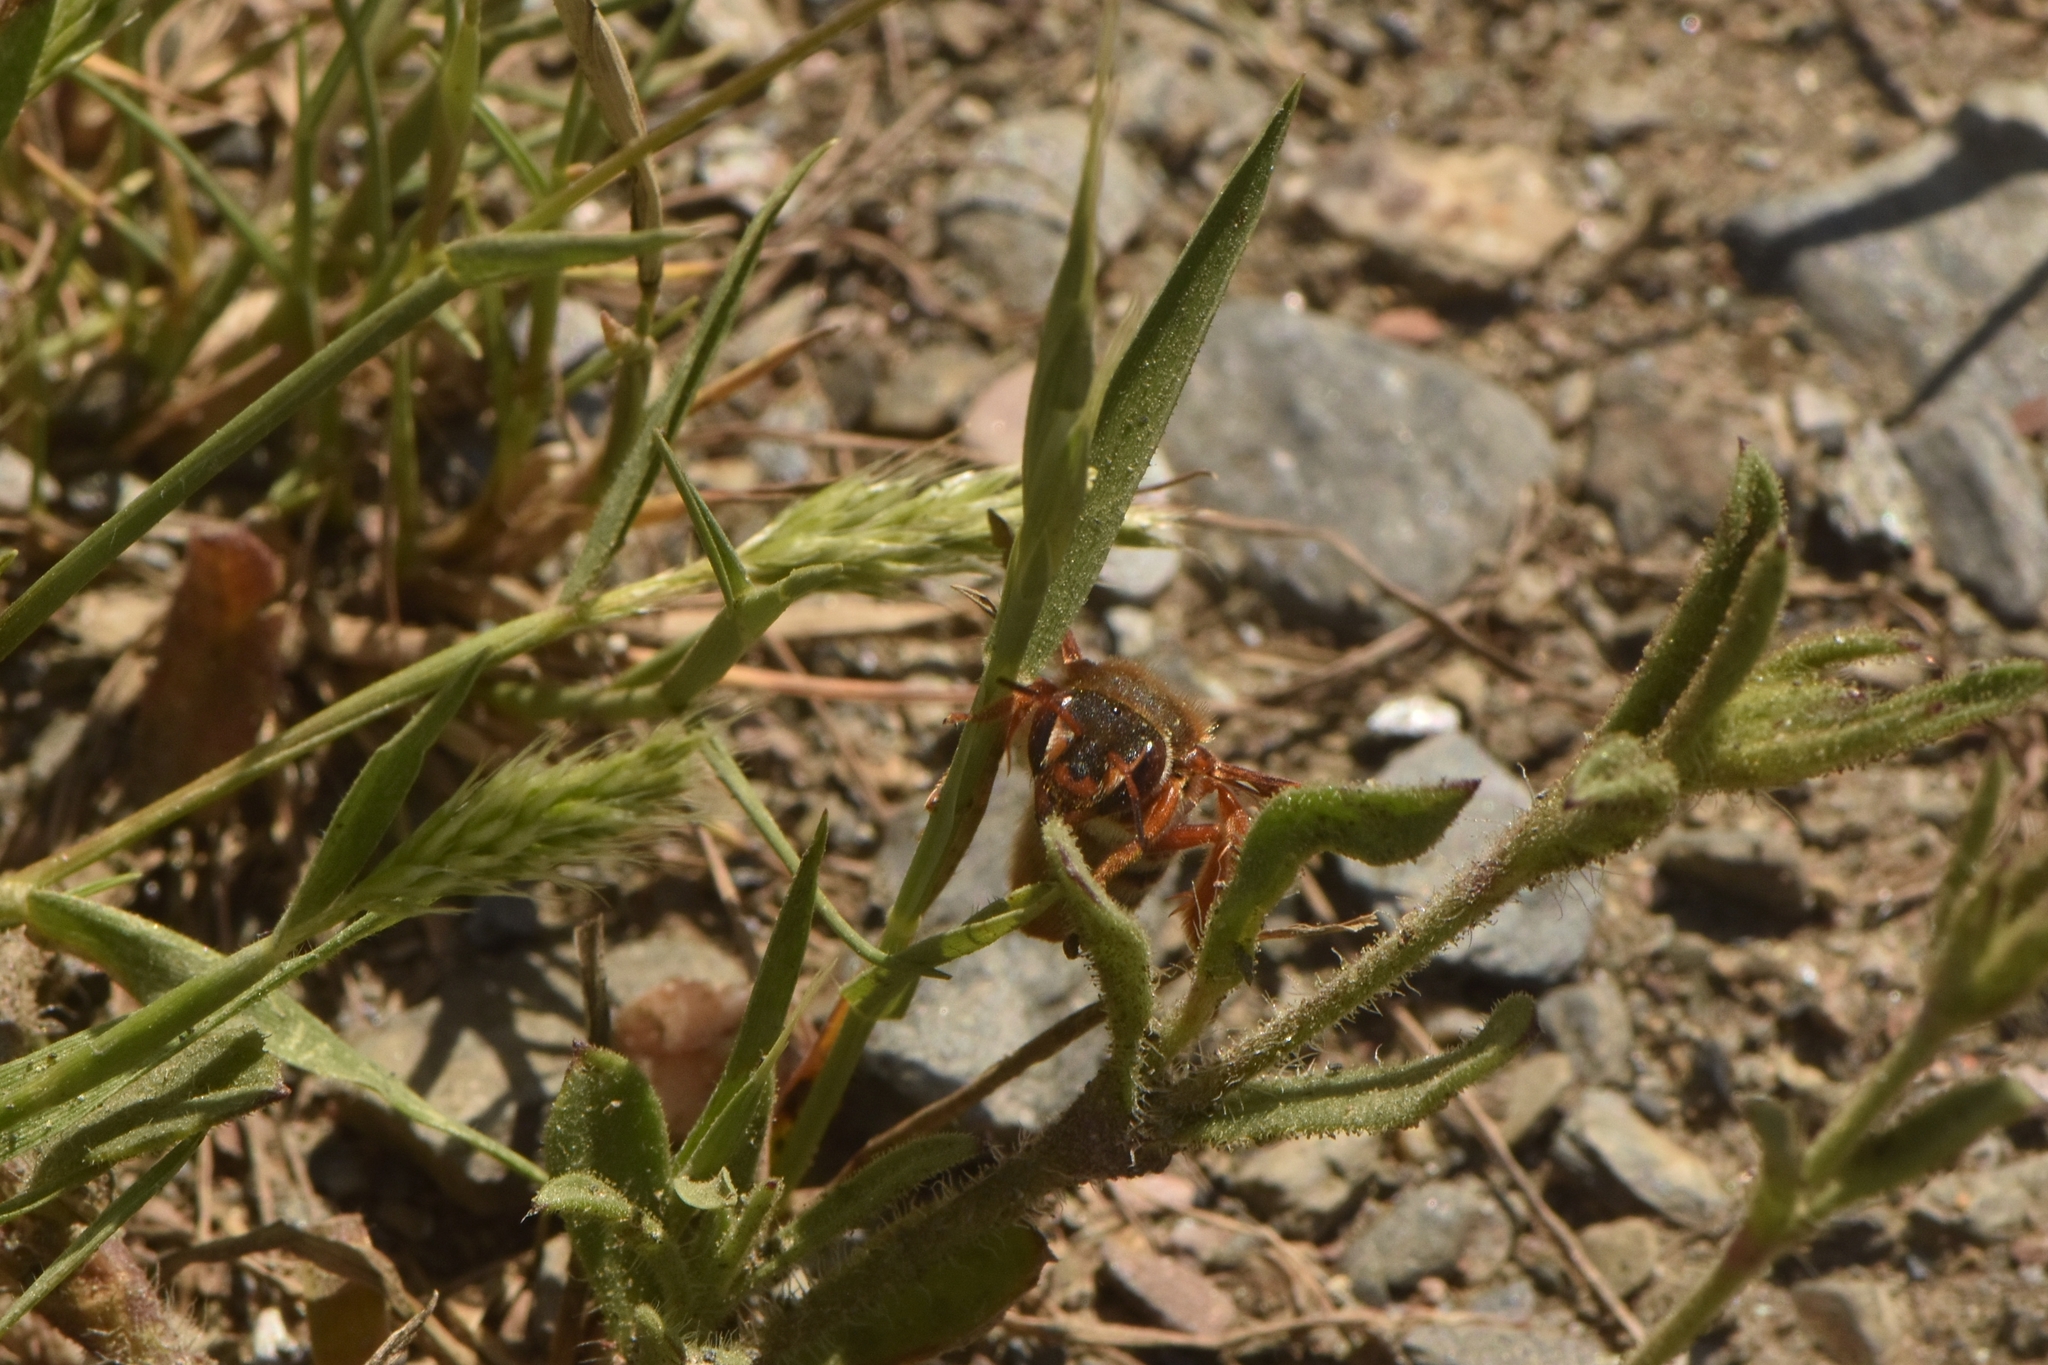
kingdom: Animalia
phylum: Arthropoda
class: Insecta
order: Hymenoptera
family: Megachilidae
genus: Rhodanthidium
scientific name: Rhodanthidium sticticum
